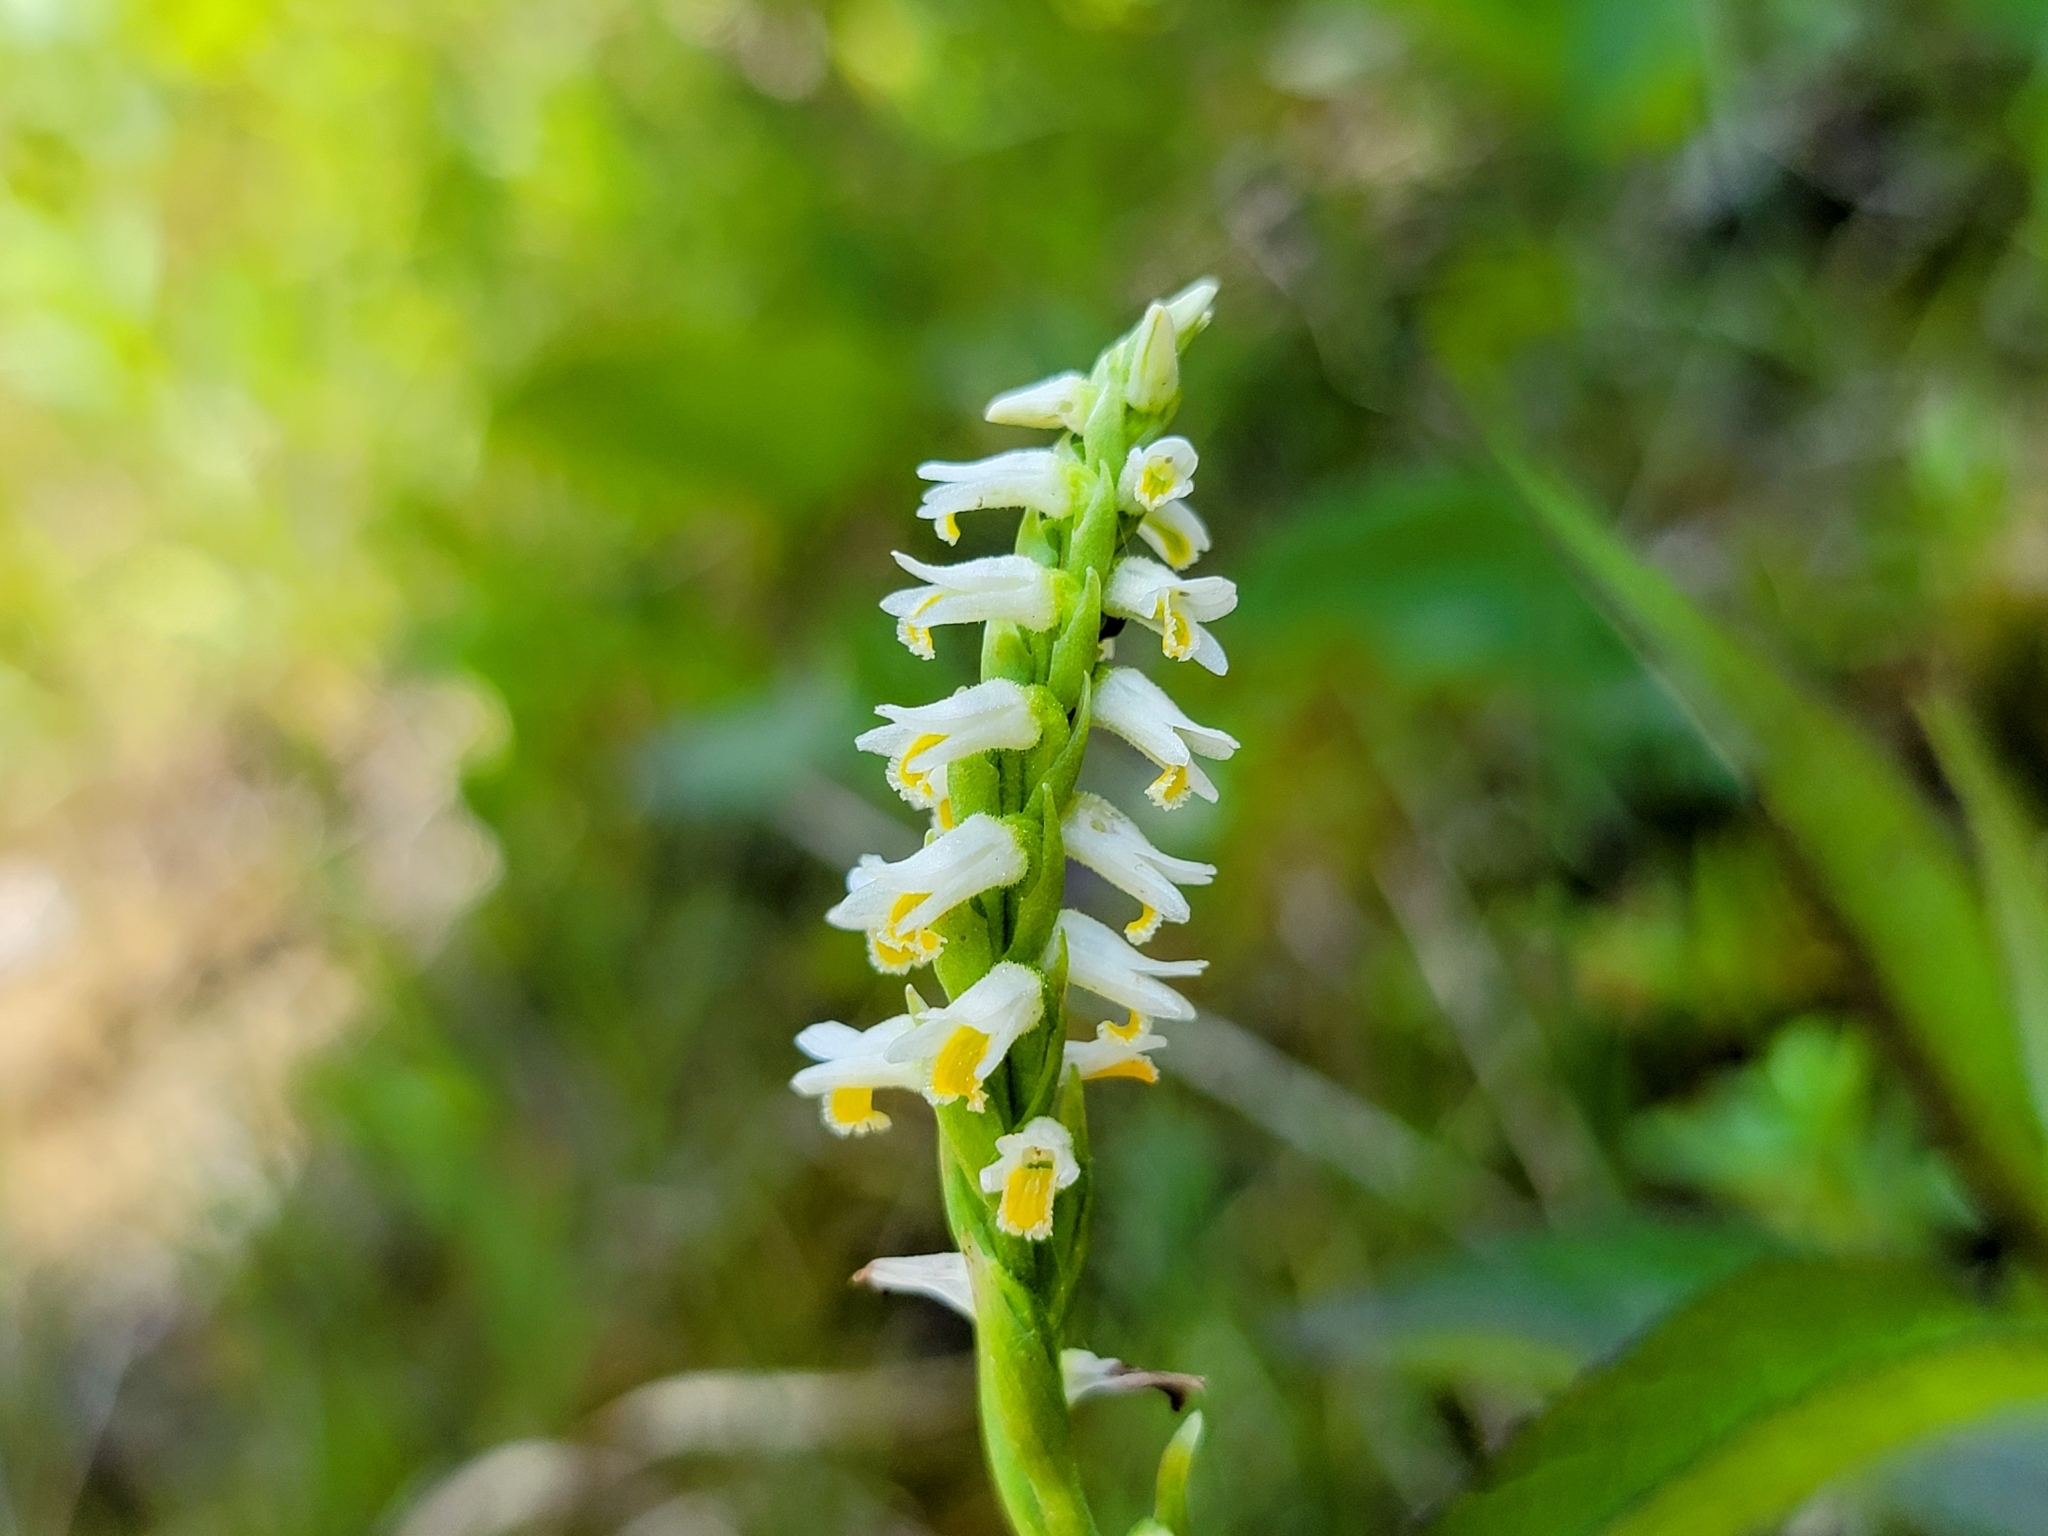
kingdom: Plantae
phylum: Tracheophyta
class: Liliopsida
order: Asparagales
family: Orchidaceae
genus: Spiranthes
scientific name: Spiranthes lucida
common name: Broad-leaved ladies'-tresses
